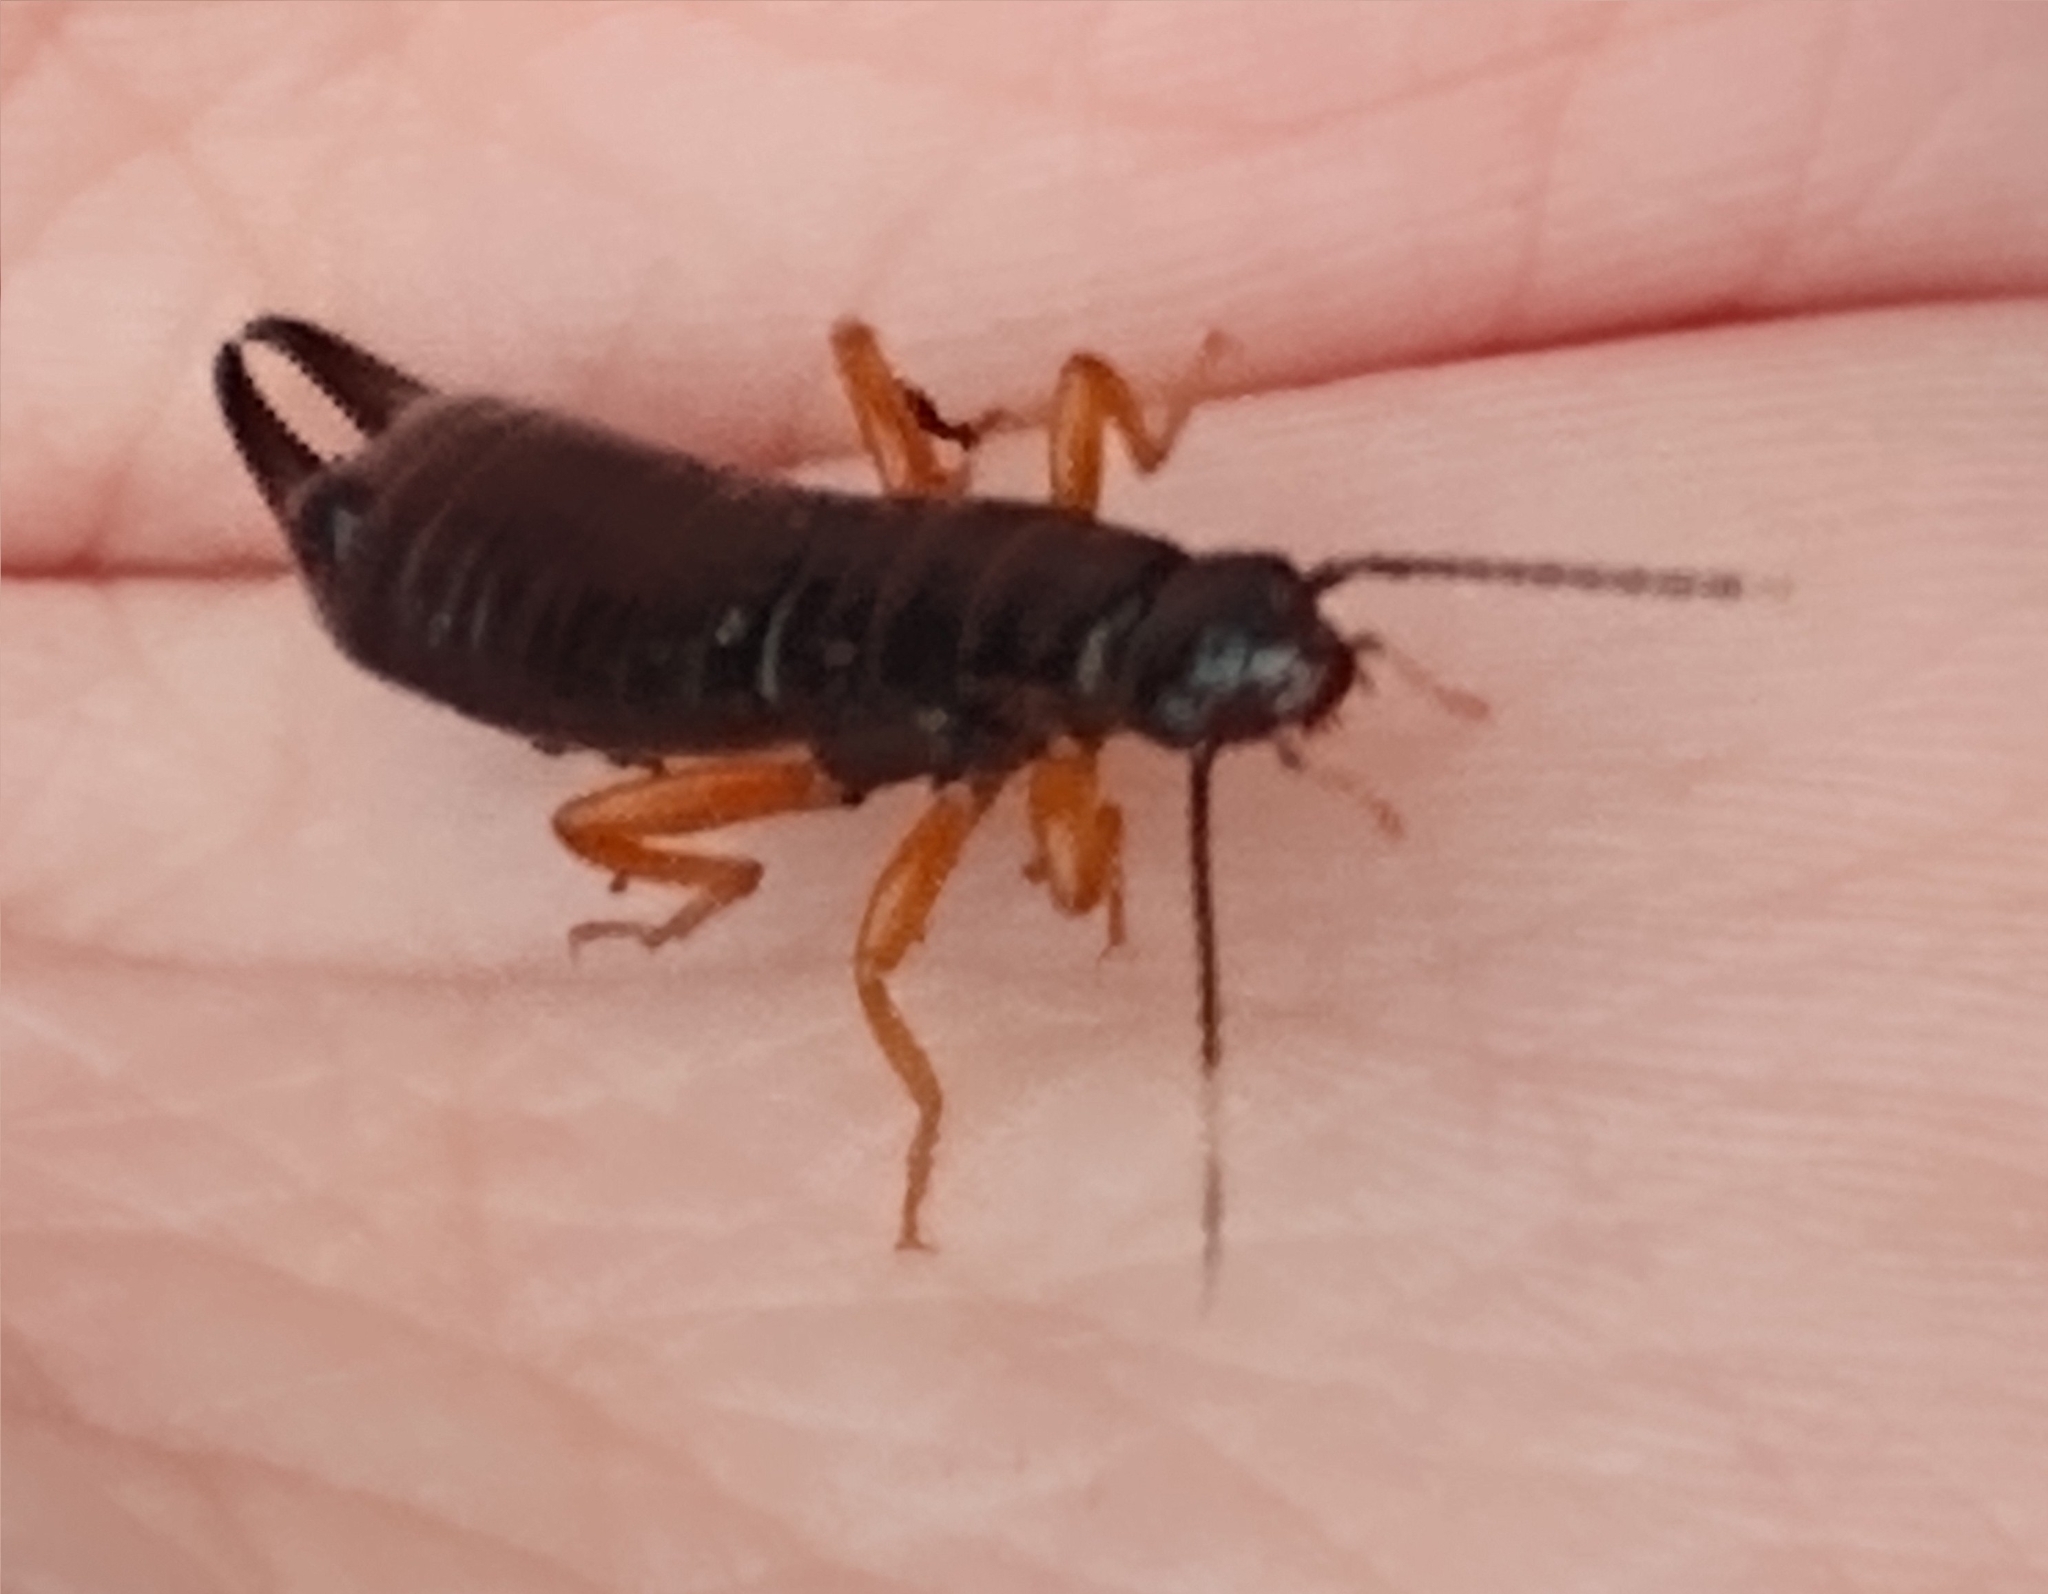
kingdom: Animalia
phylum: Arthropoda
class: Insecta
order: Dermaptera
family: Anisolabididae
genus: Euborellia
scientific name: Euborellia arcanum
